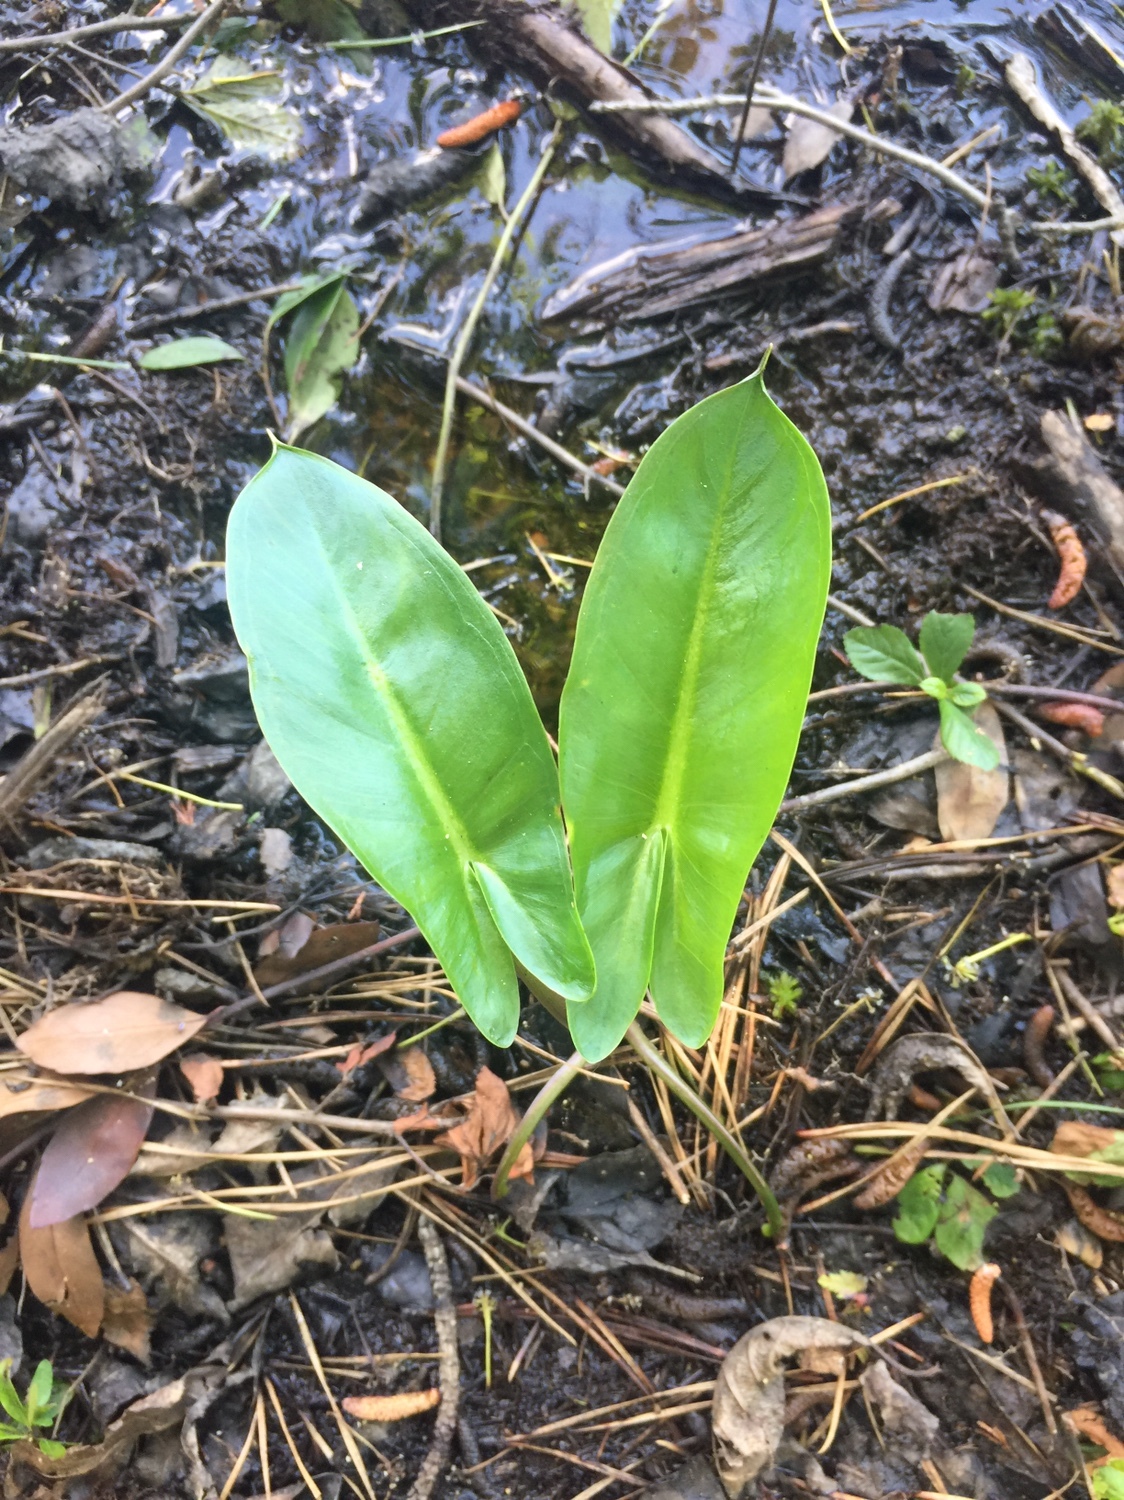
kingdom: Plantae
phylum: Tracheophyta
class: Liliopsida
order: Alismatales
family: Araceae
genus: Peltandra
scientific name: Peltandra virginica
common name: Arrow arum
